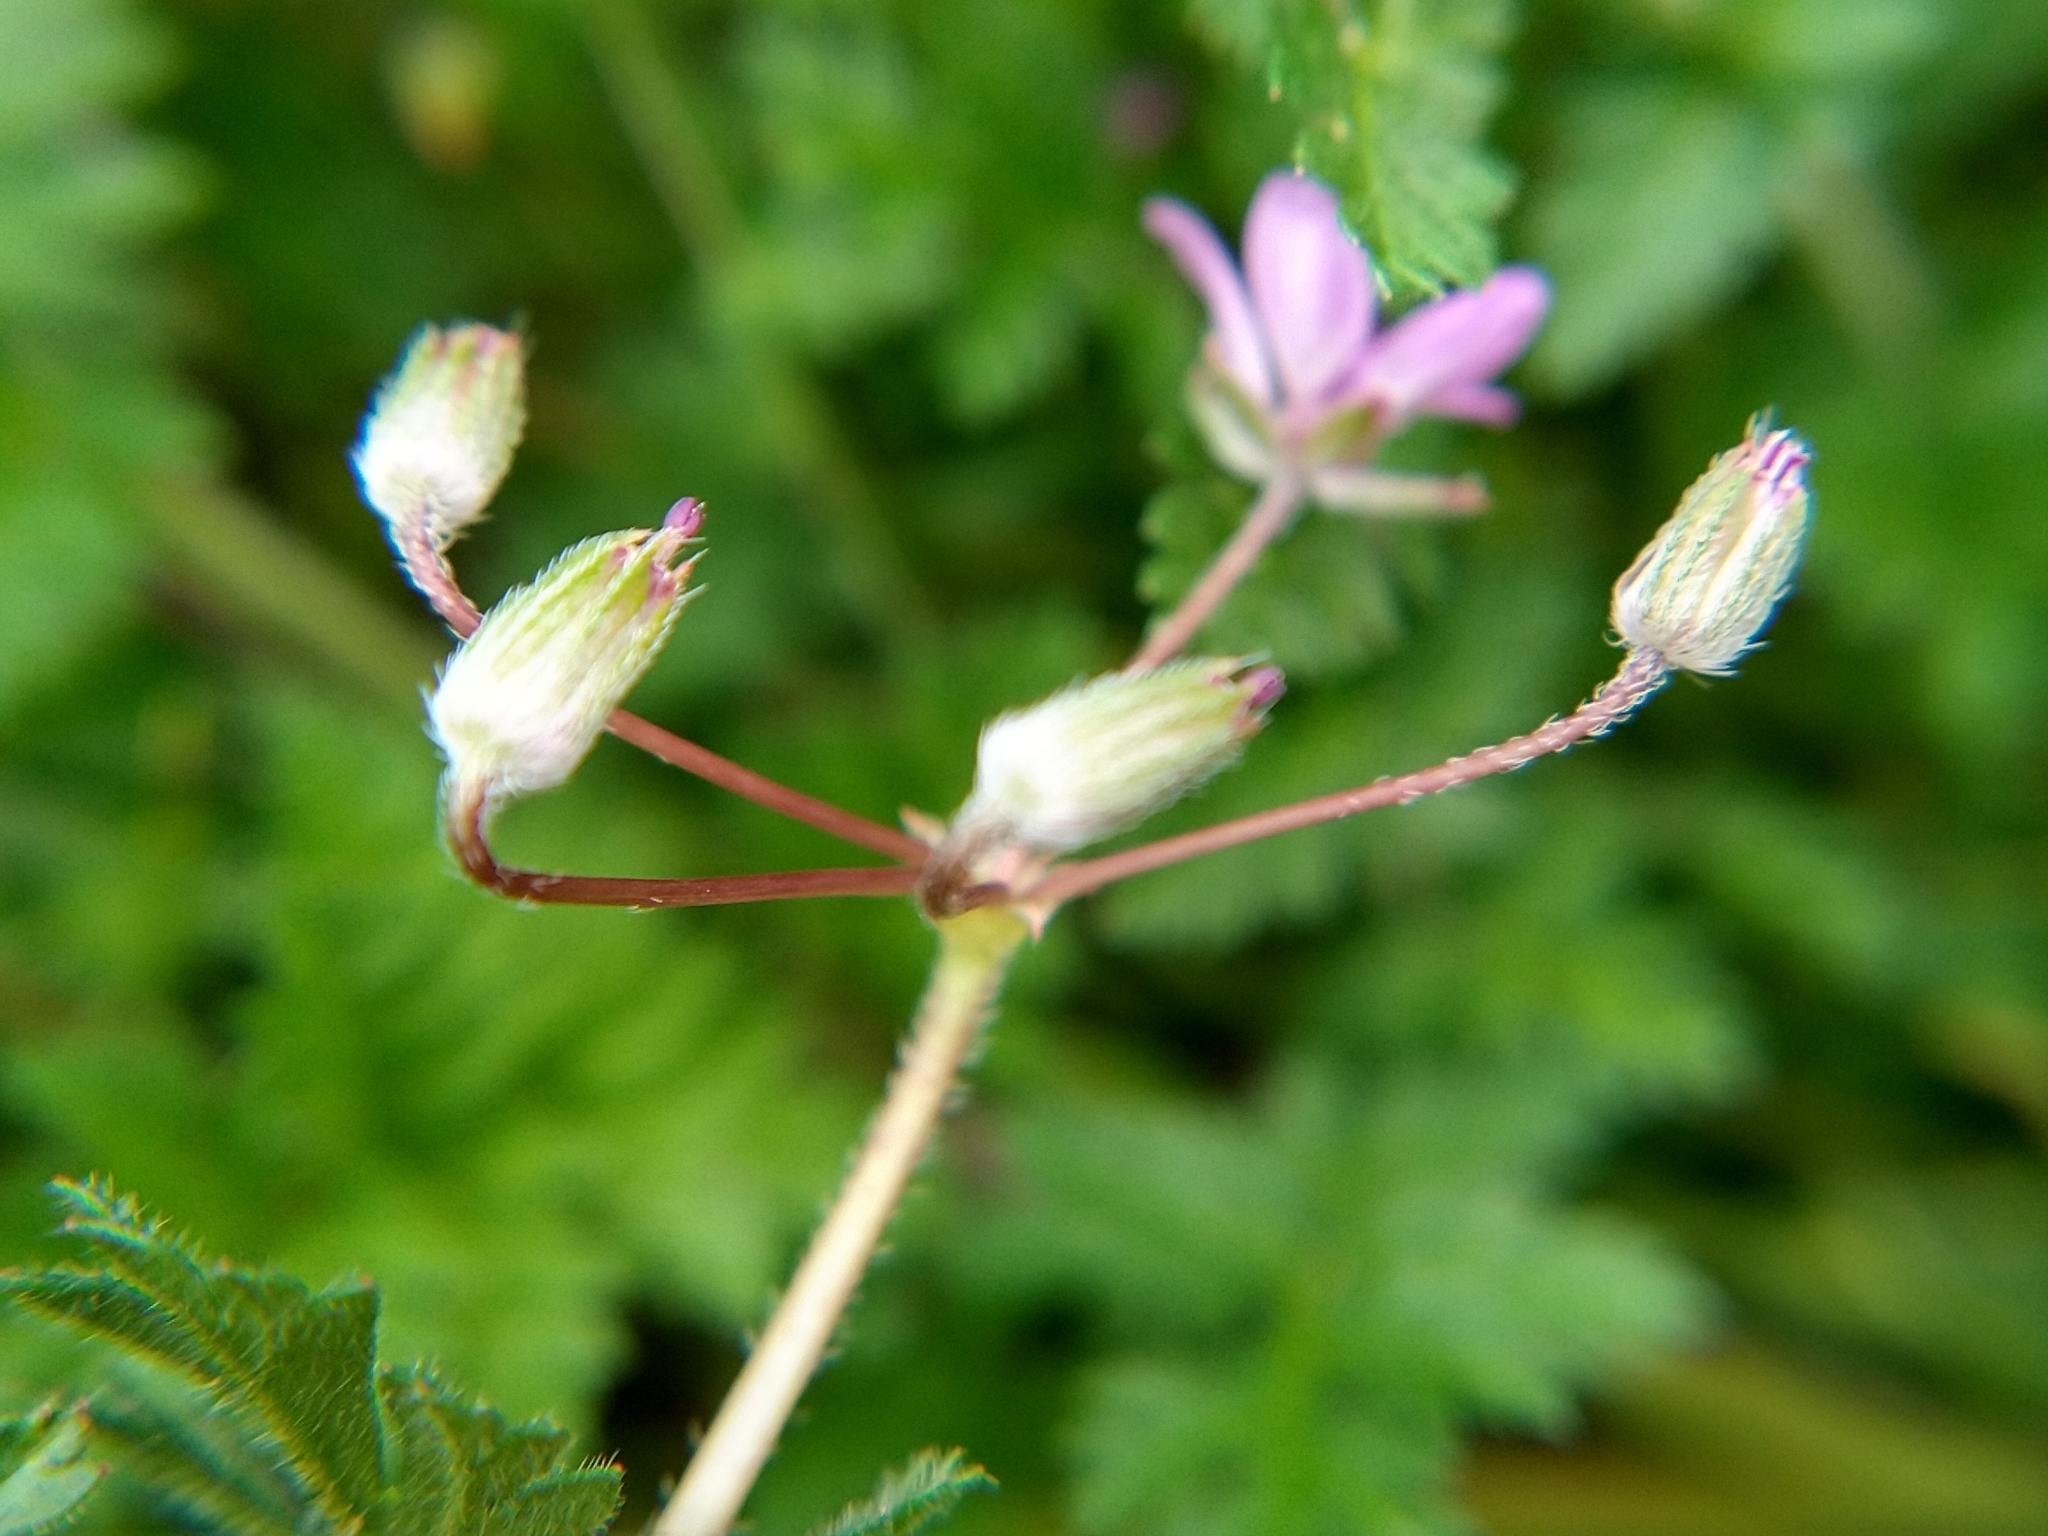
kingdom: Plantae
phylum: Tracheophyta
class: Magnoliopsida
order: Geraniales
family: Geraniaceae
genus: Erodium
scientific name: Erodium cicutarium
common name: Common stork's-bill
